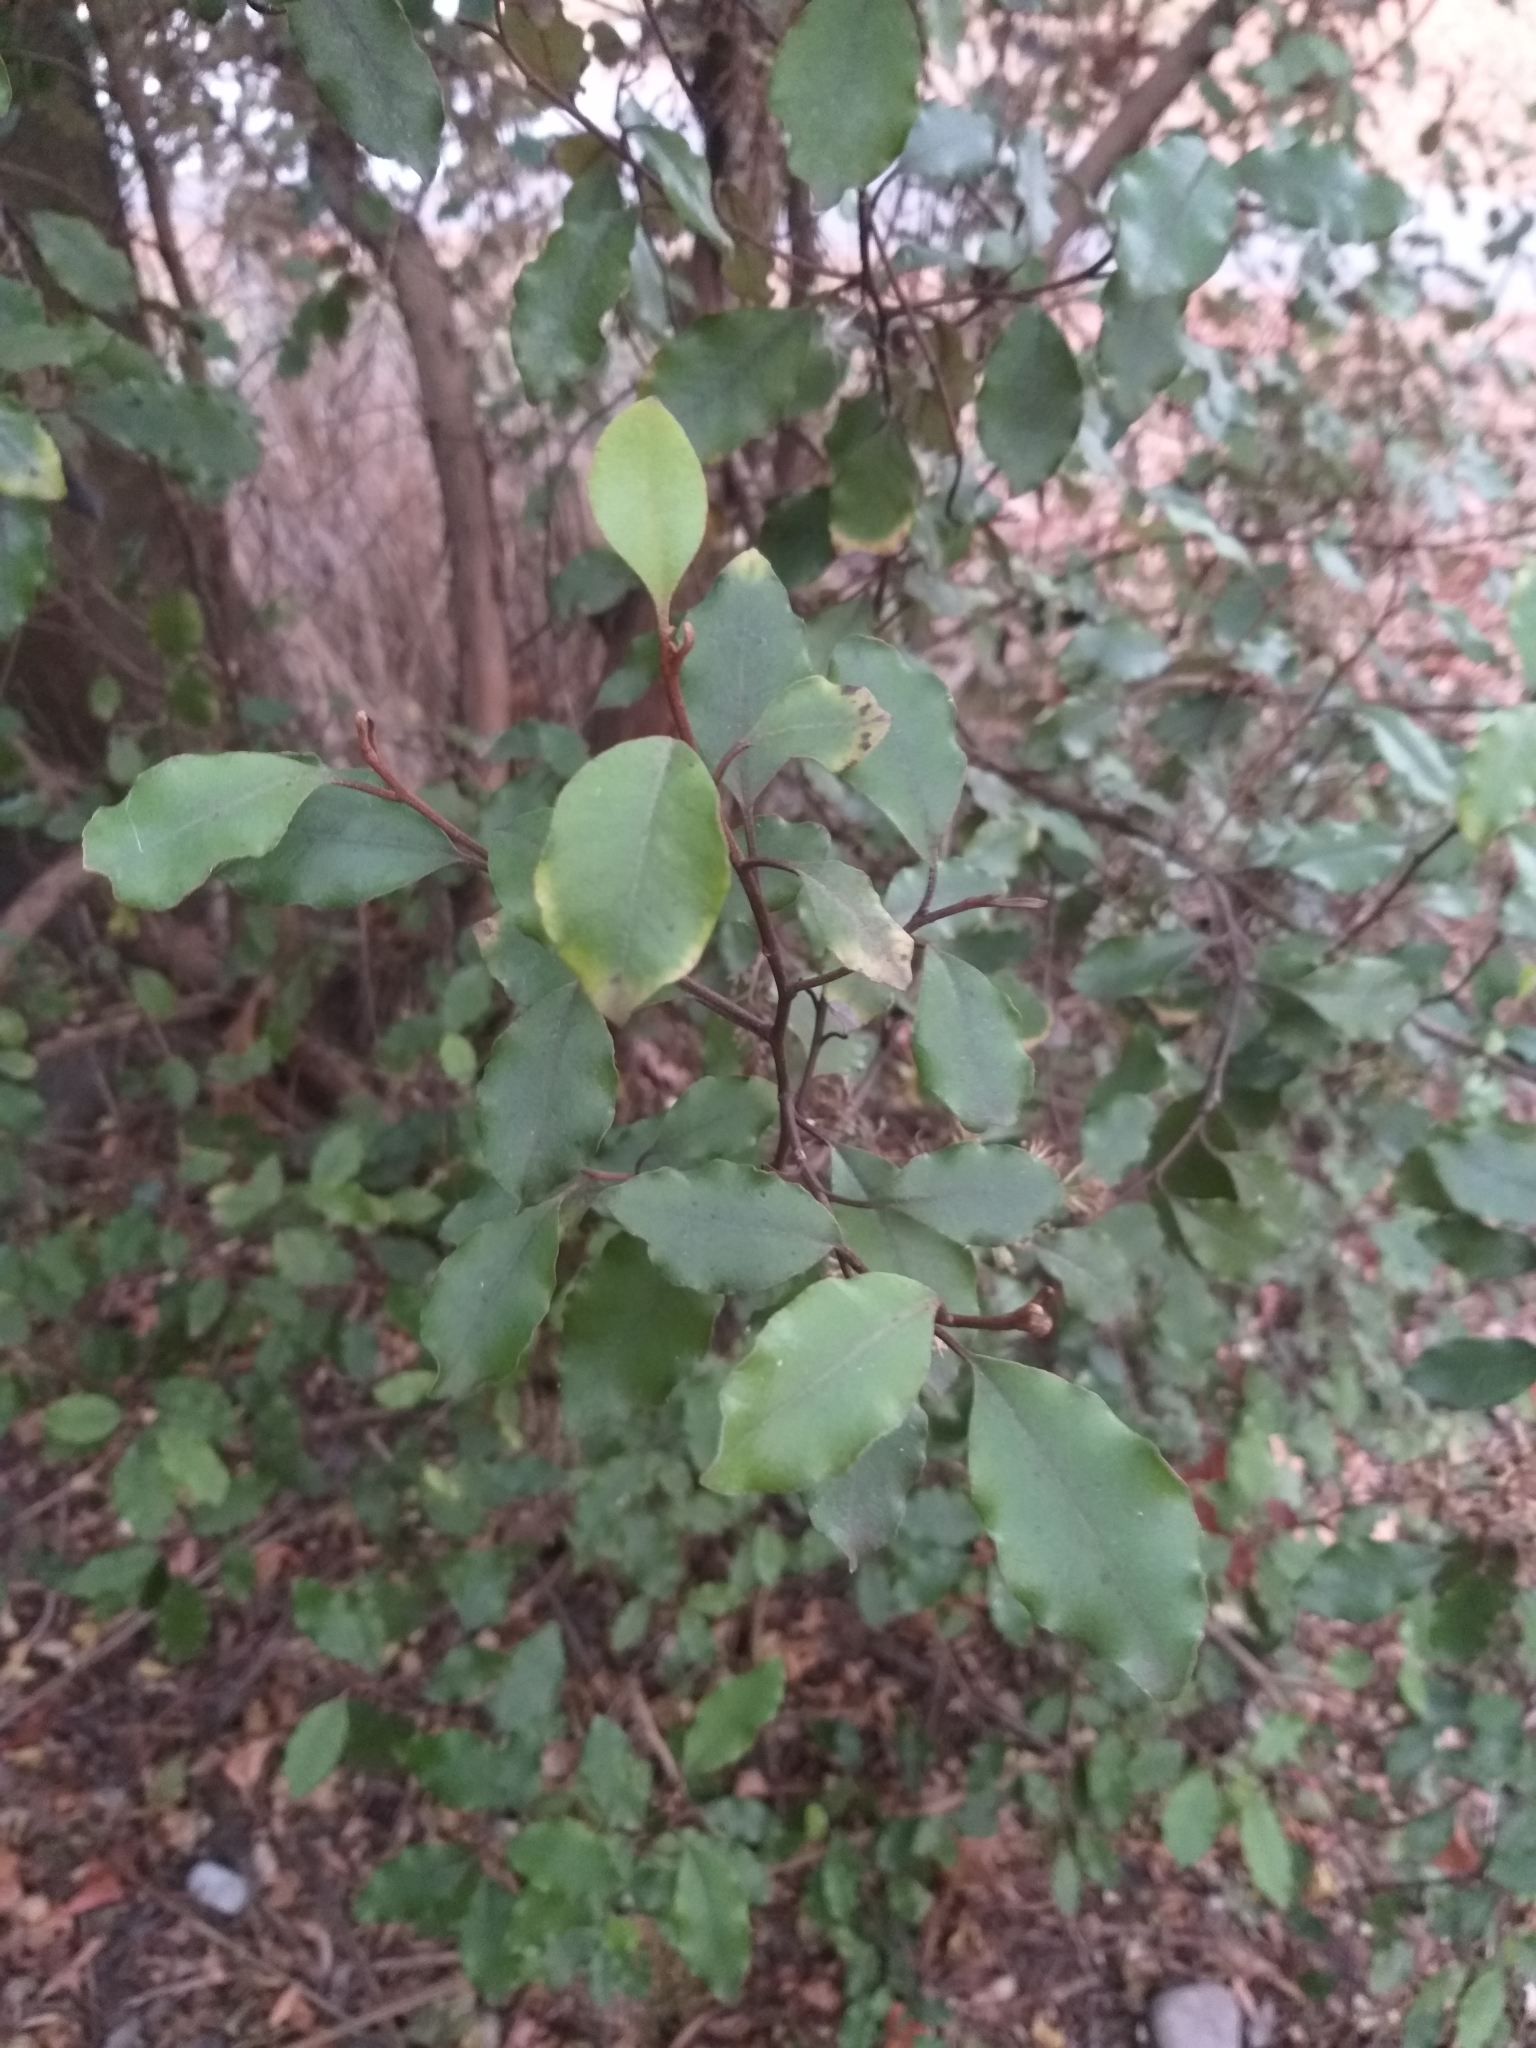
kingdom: Plantae
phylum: Tracheophyta
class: Magnoliopsida
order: Asterales
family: Asteraceae
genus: Olearia
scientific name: Olearia paniculata
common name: Akiraho
